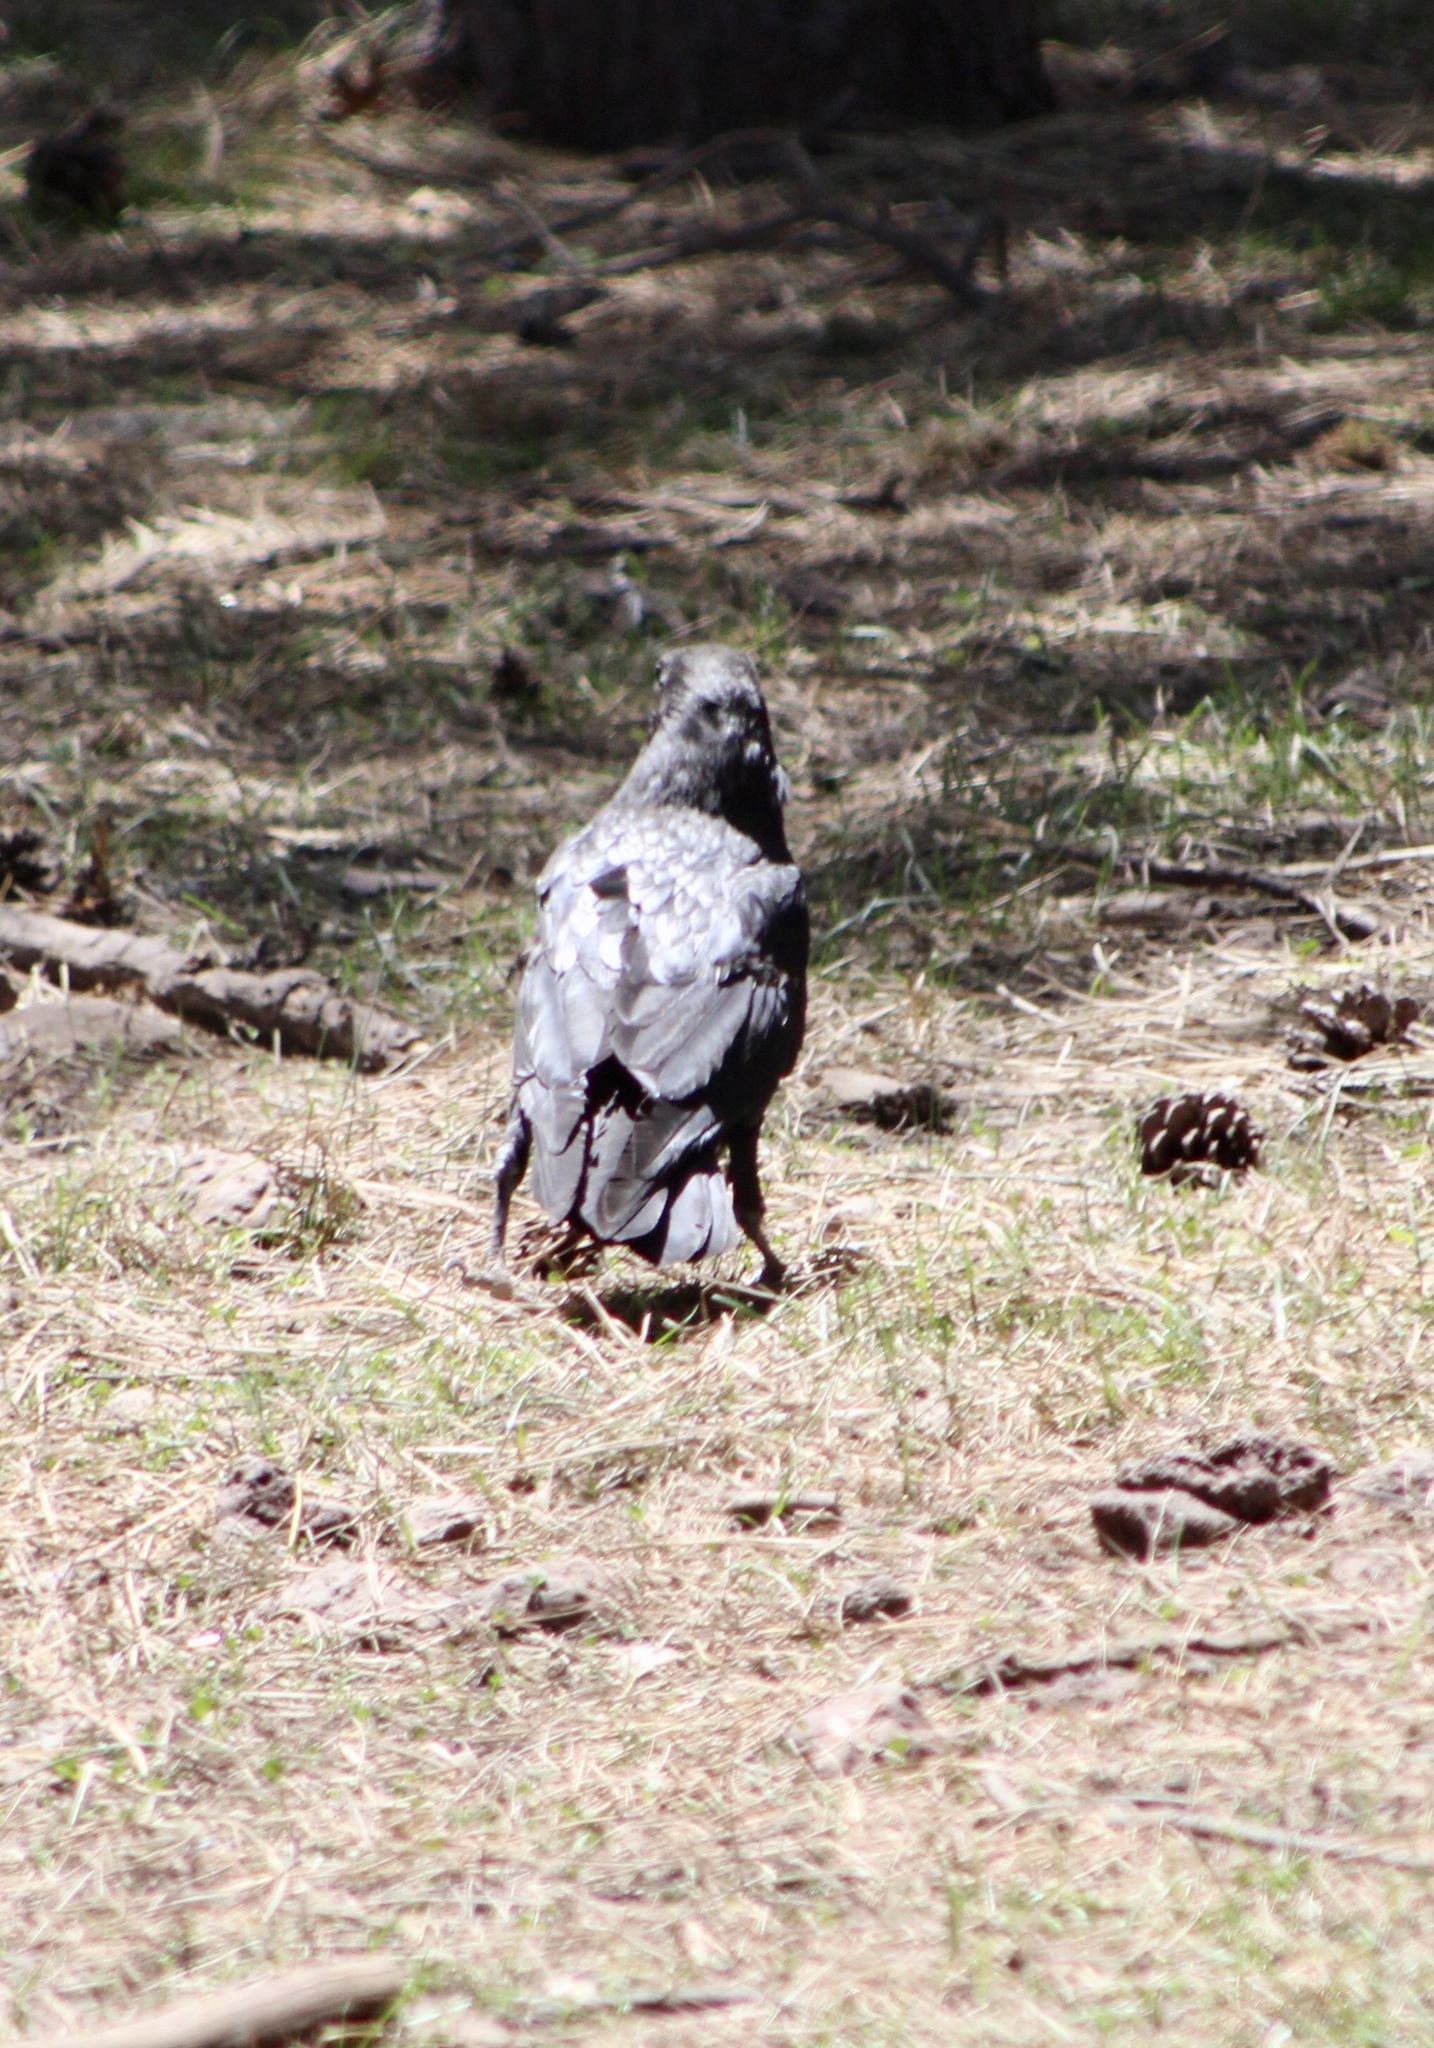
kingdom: Animalia
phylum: Chordata
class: Aves
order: Passeriformes
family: Corvidae
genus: Corvus
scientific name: Corvus corax
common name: Common raven
